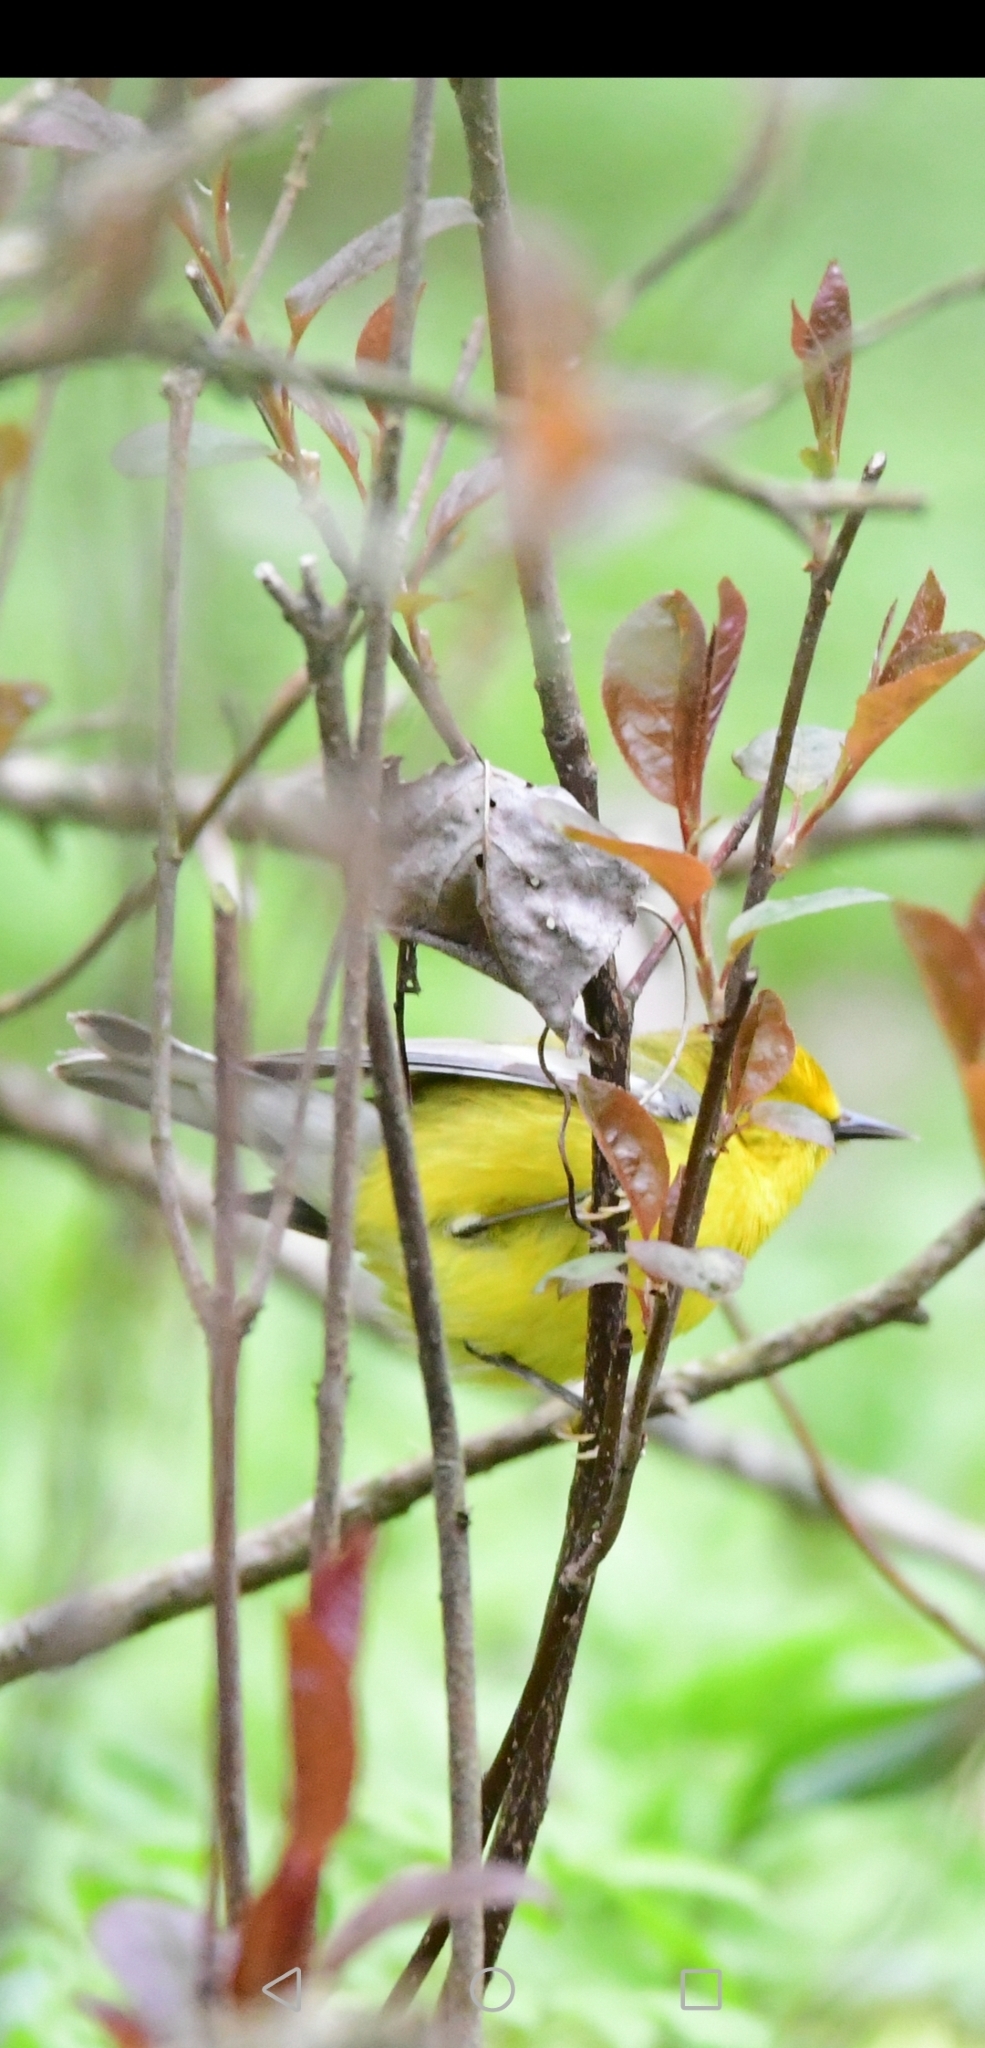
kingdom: Animalia
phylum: Chordata
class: Aves
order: Passeriformes
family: Parulidae
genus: Vermivora
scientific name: Vermivora cyanoptera
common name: Blue-winged warbler
